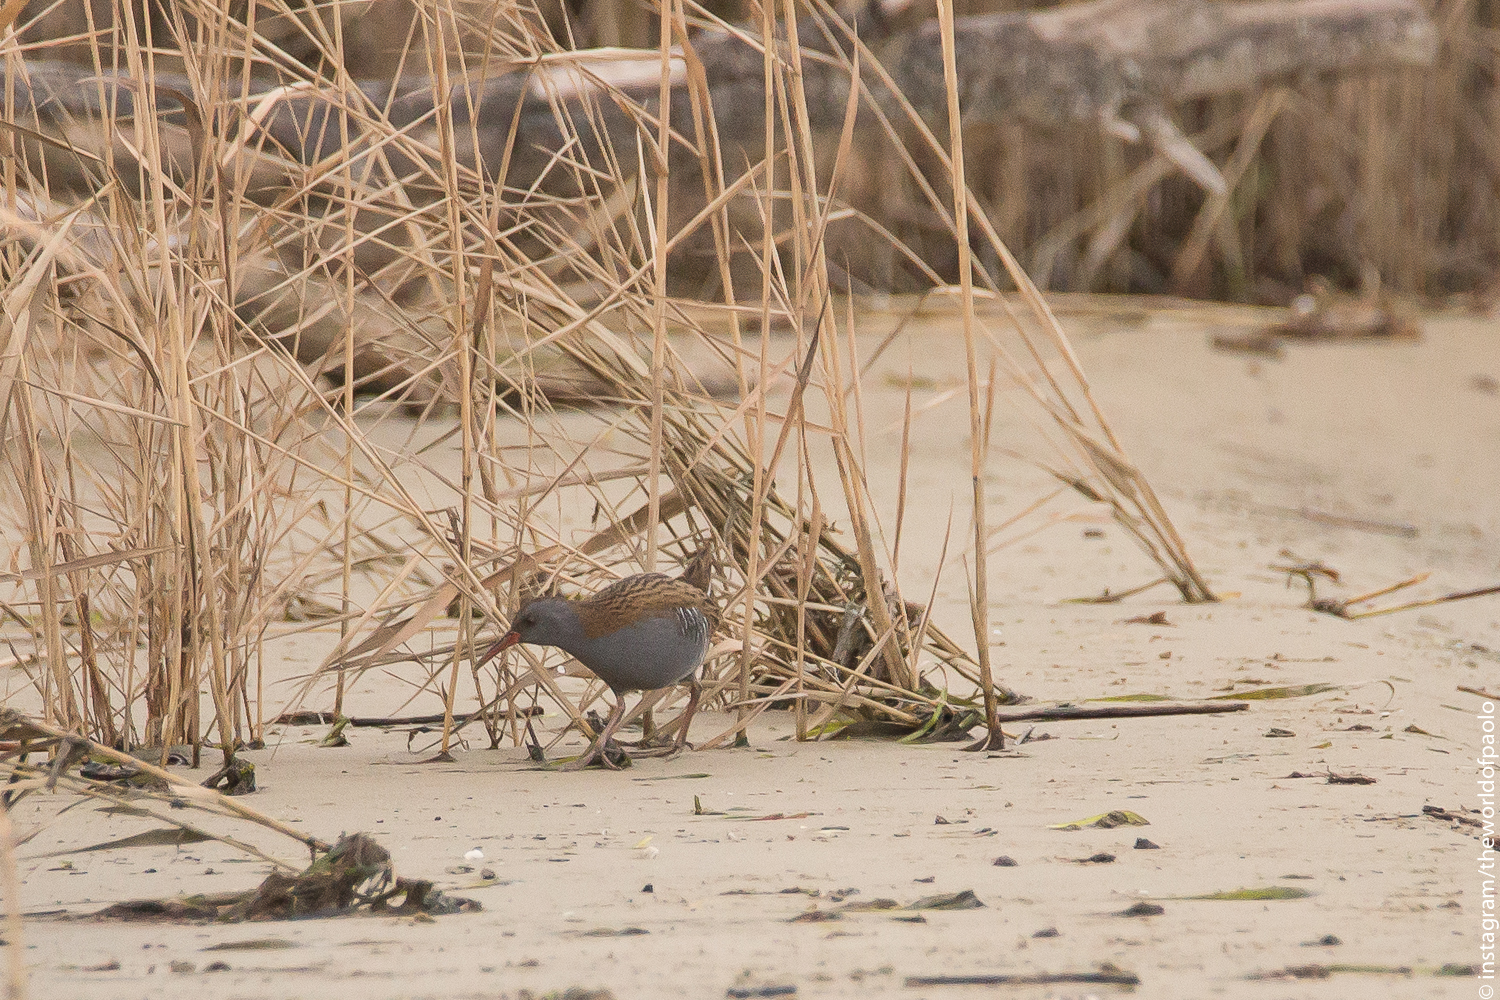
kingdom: Animalia
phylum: Chordata
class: Aves
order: Gruiformes
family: Rallidae
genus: Rallus
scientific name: Rallus aquaticus
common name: Water rail
